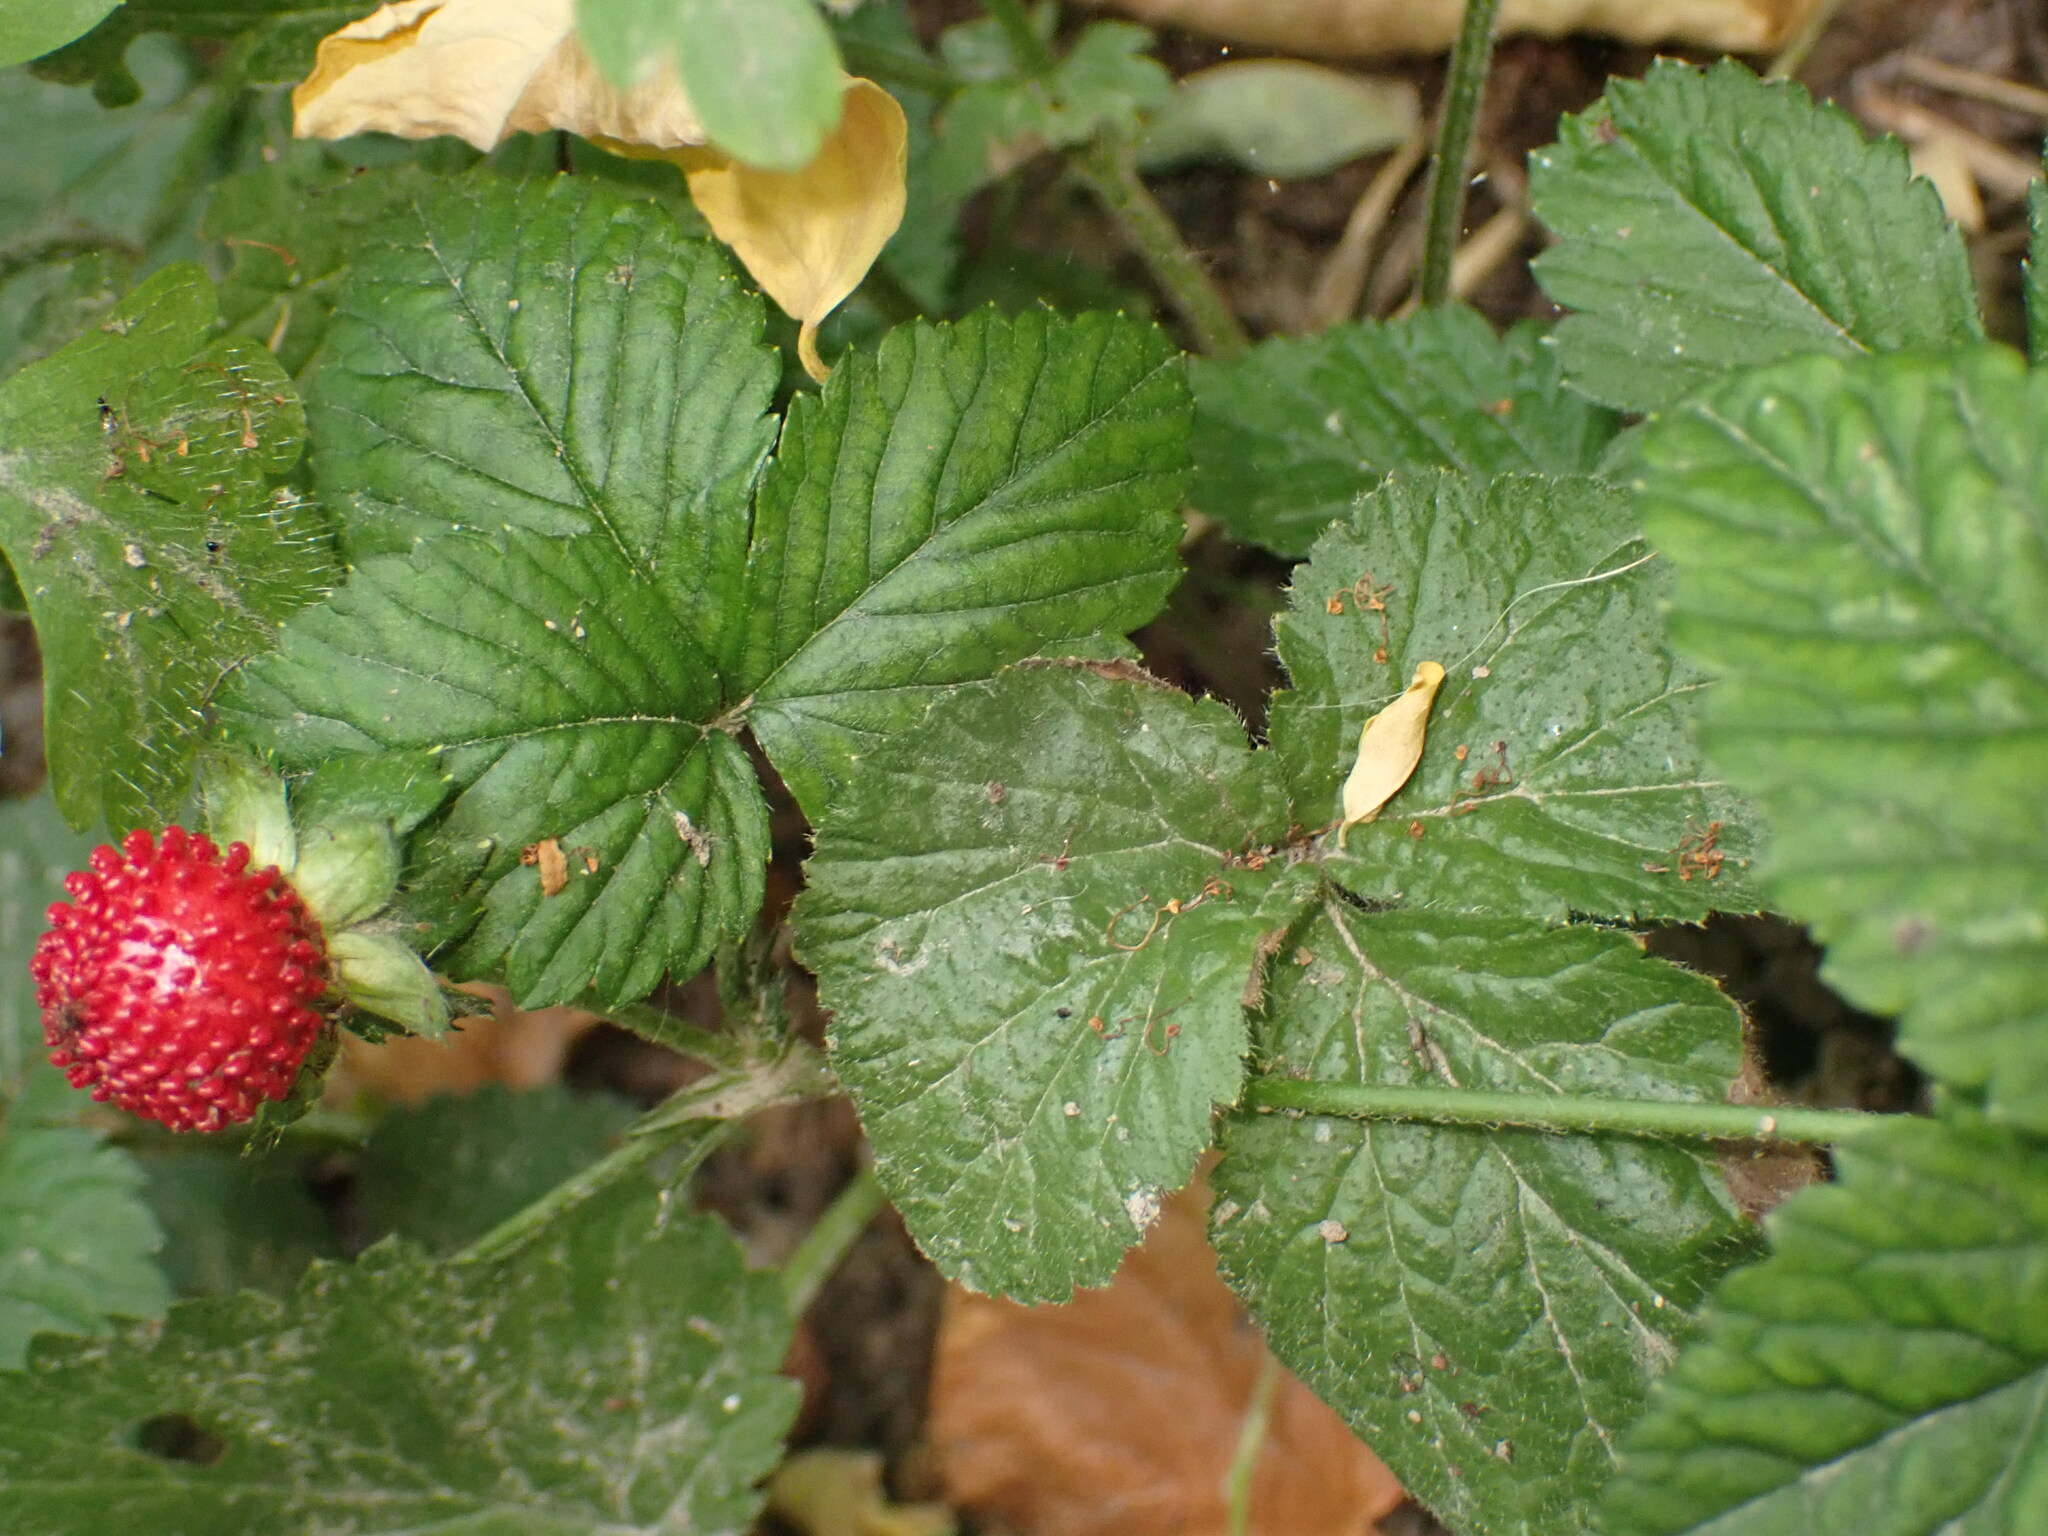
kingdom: Plantae
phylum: Tracheophyta
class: Magnoliopsida
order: Rosales
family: Rosaceae
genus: Potentilla
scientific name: Potentilla indica
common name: Yellow-flowered strawberry
